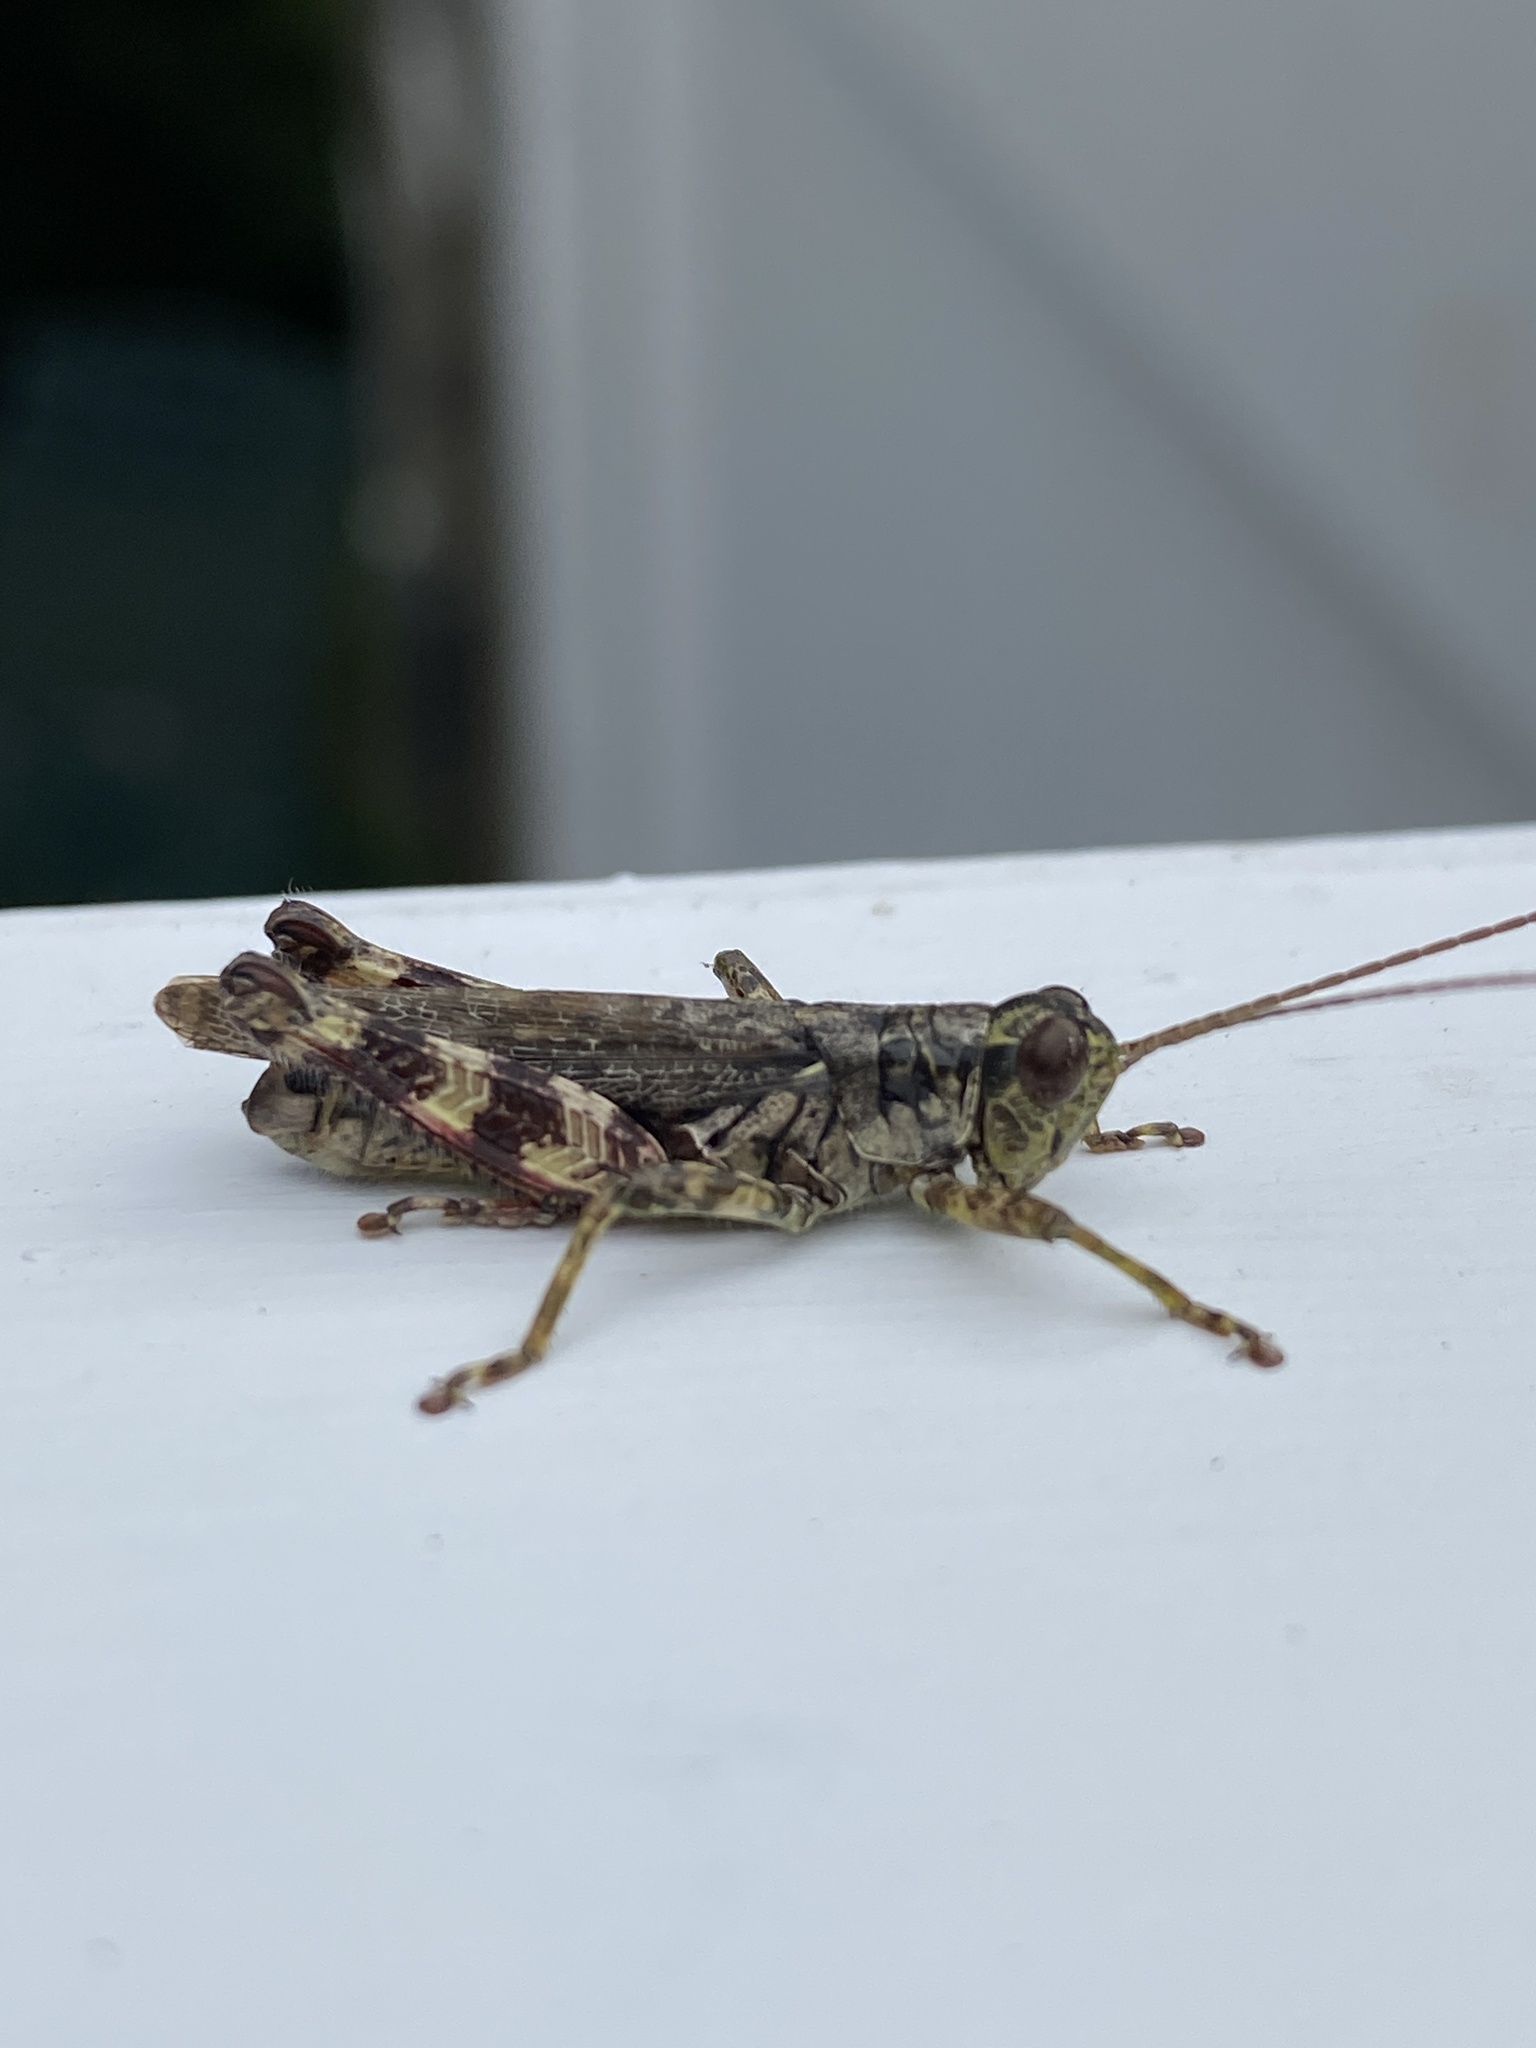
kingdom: Animalia
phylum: Arthropoda
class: Insecta
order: Orthoptera
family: Acrididae
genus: Melanoplus
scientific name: Melanoplus punctulatus
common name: Pine-tree spur-throat grasshopper
